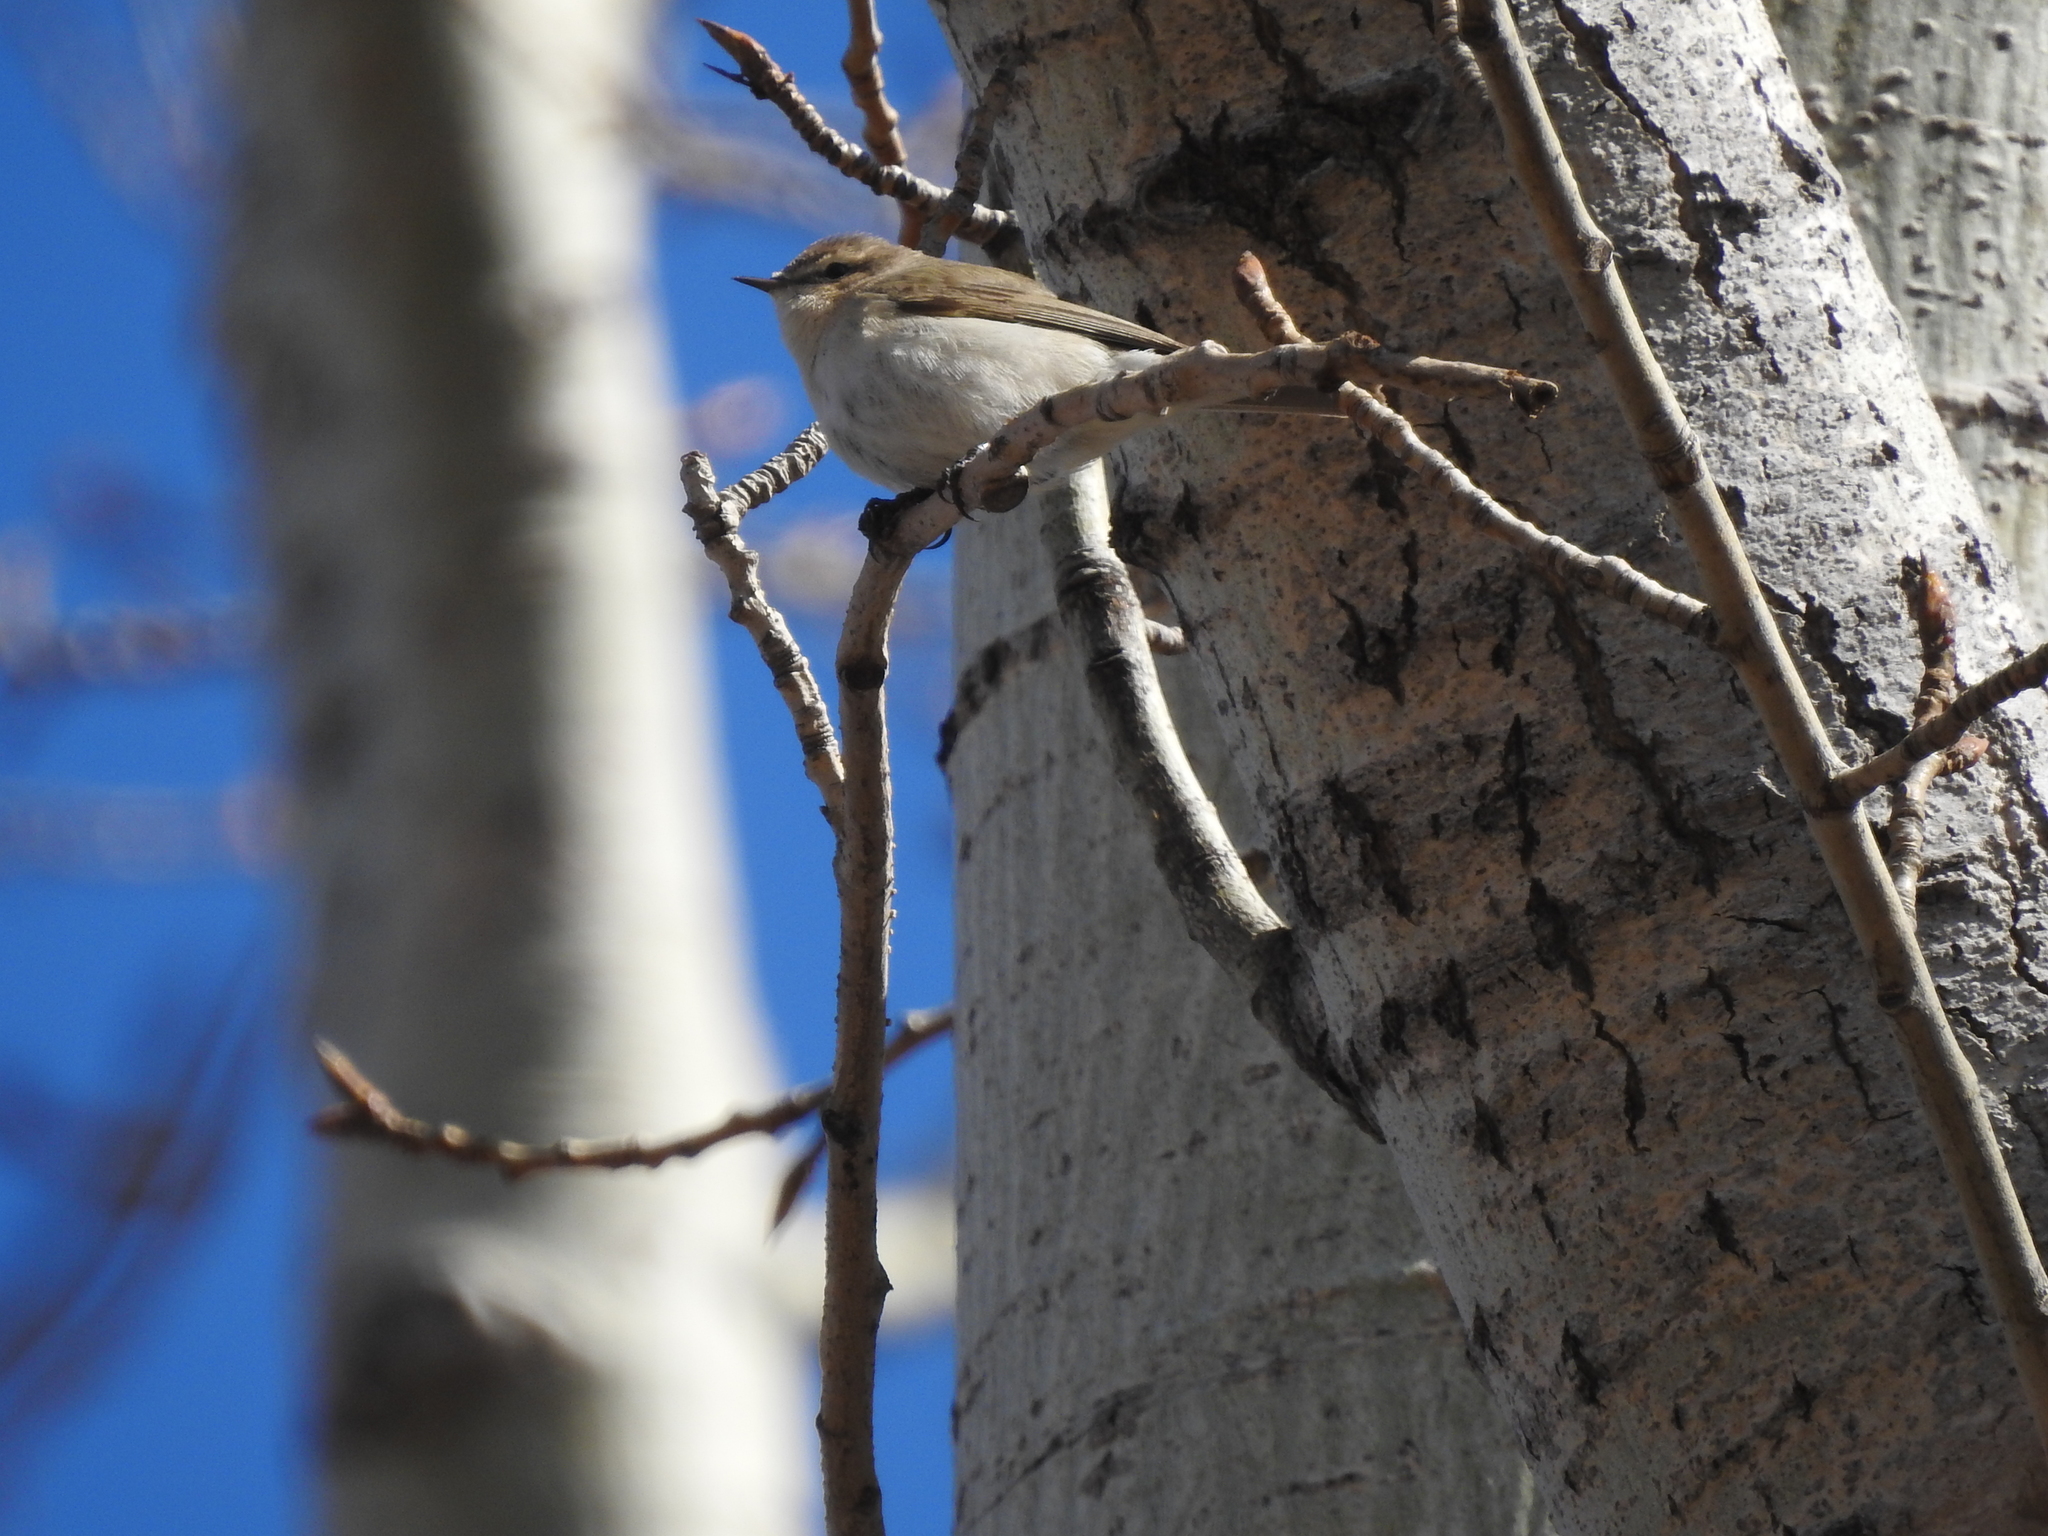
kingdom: Animalia
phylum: Chordata
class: Aves
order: Passeriformes
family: Phylloscopidae
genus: Phylloscopus
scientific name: Phylloscopus collybita
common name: Common chiffchaff
